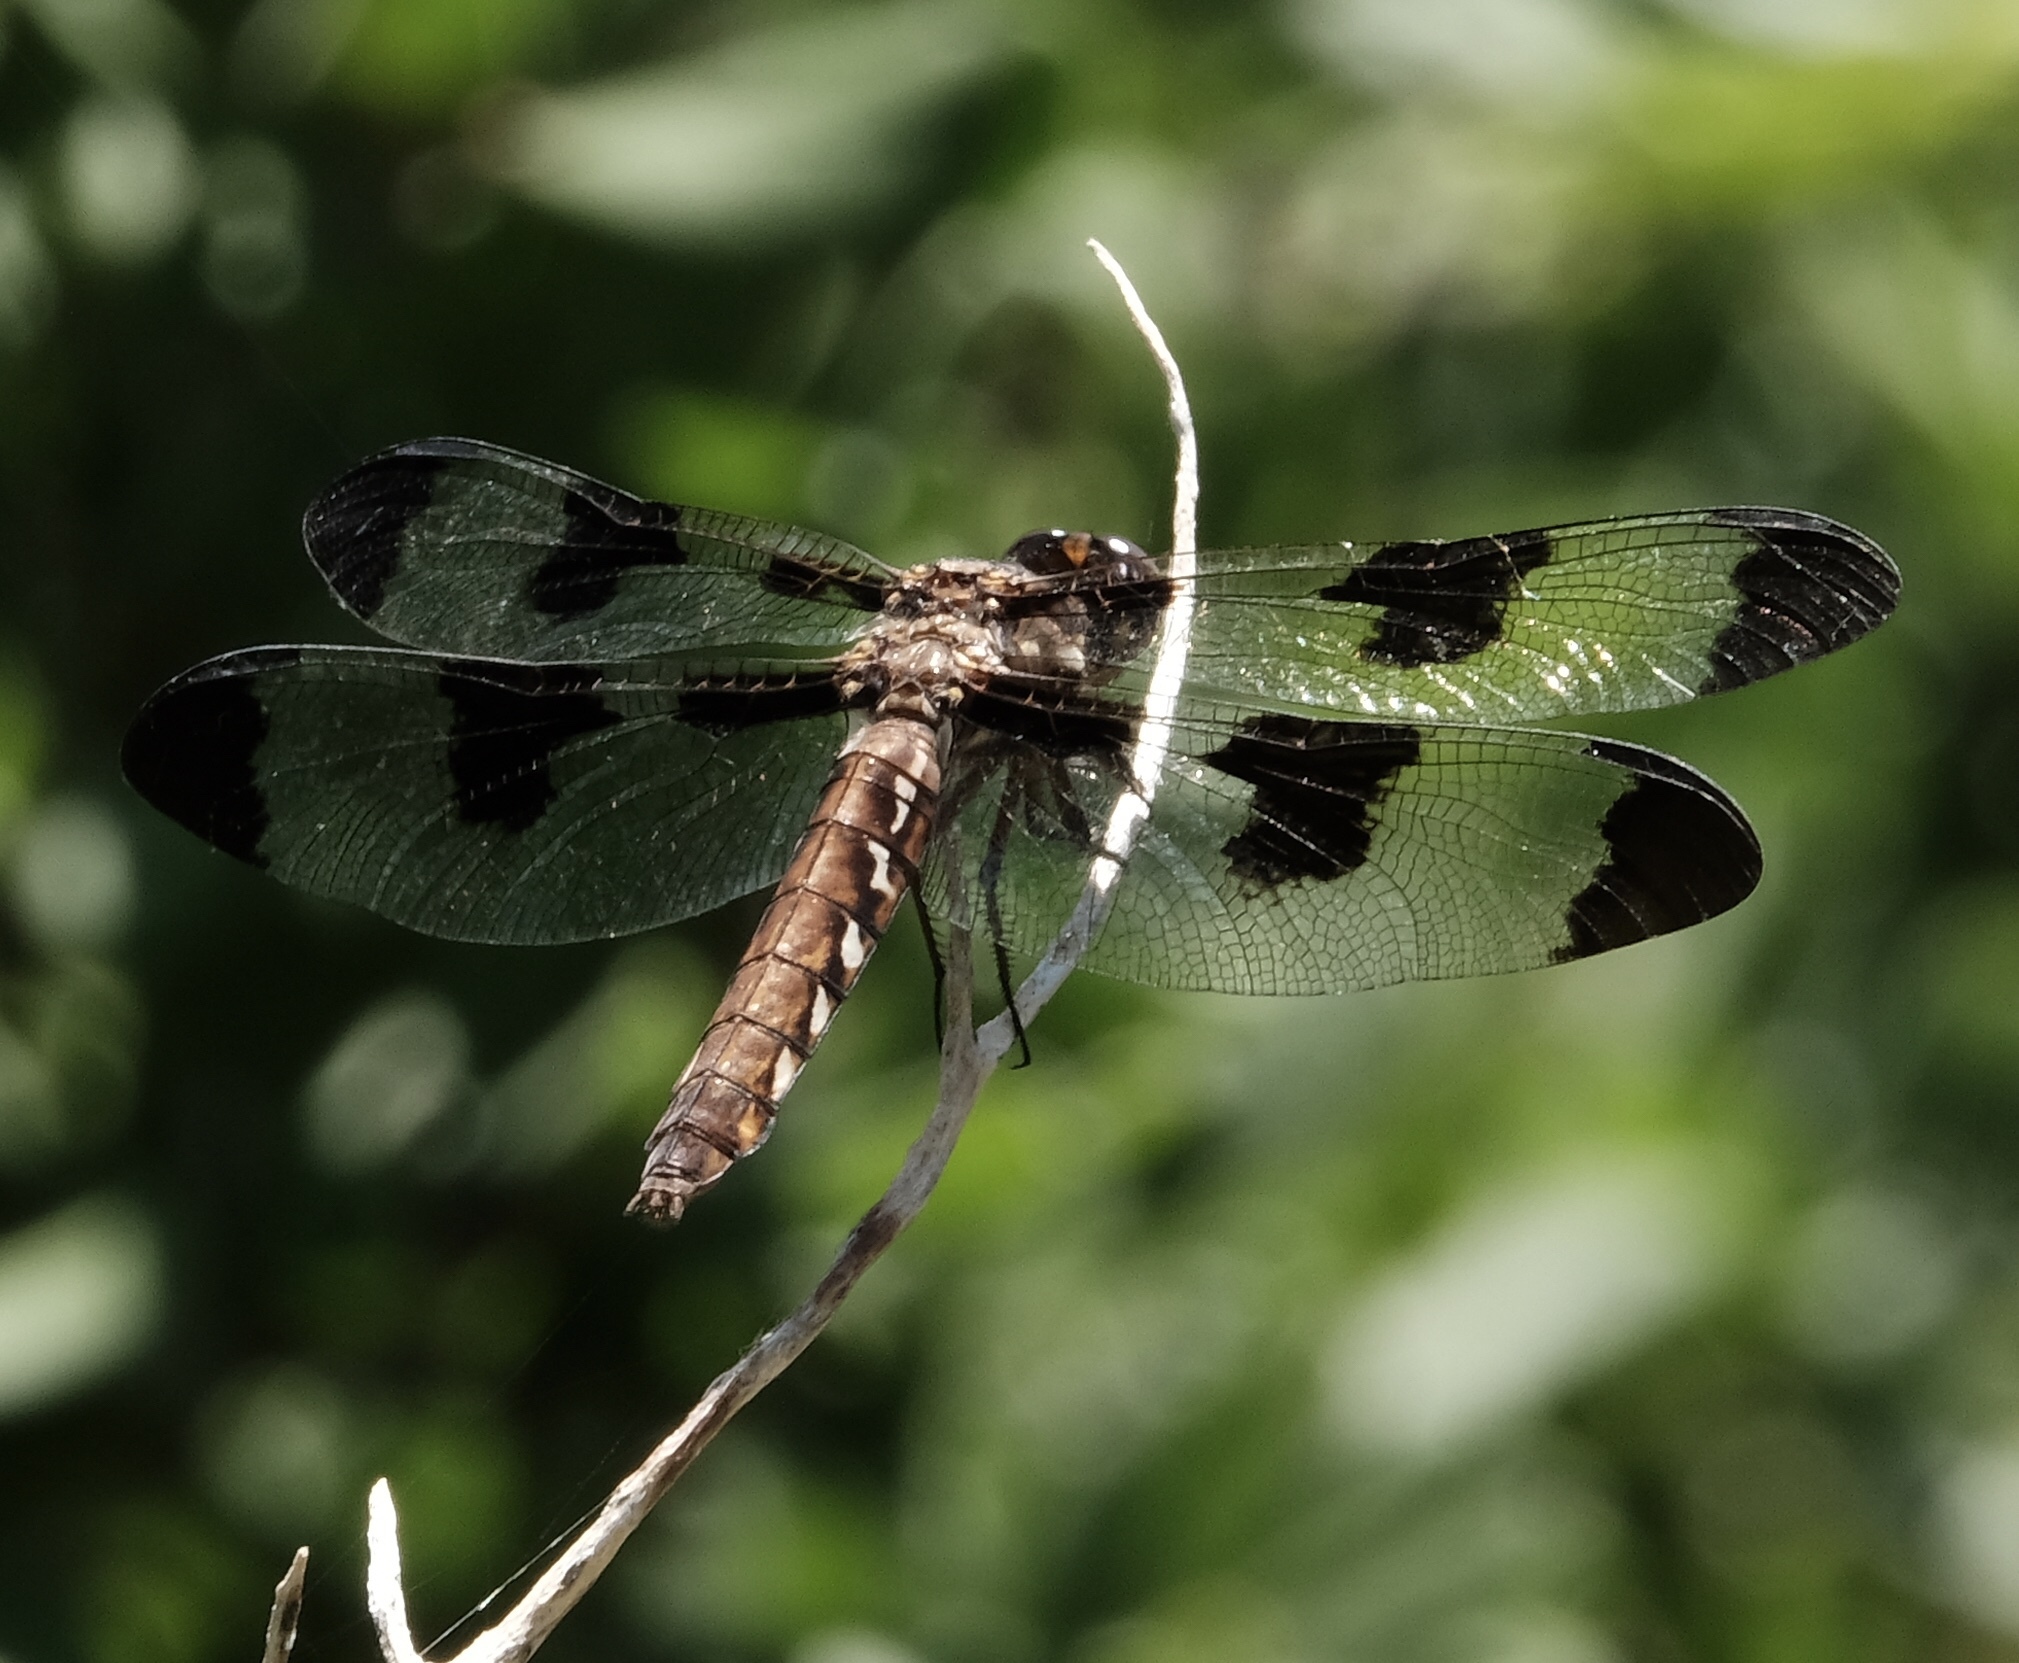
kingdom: Animalia
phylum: Arthropoda
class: Insecta
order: Odonata
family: Libellulidae
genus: Plathemis
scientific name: Plathemis lydia
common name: Common whitetail
